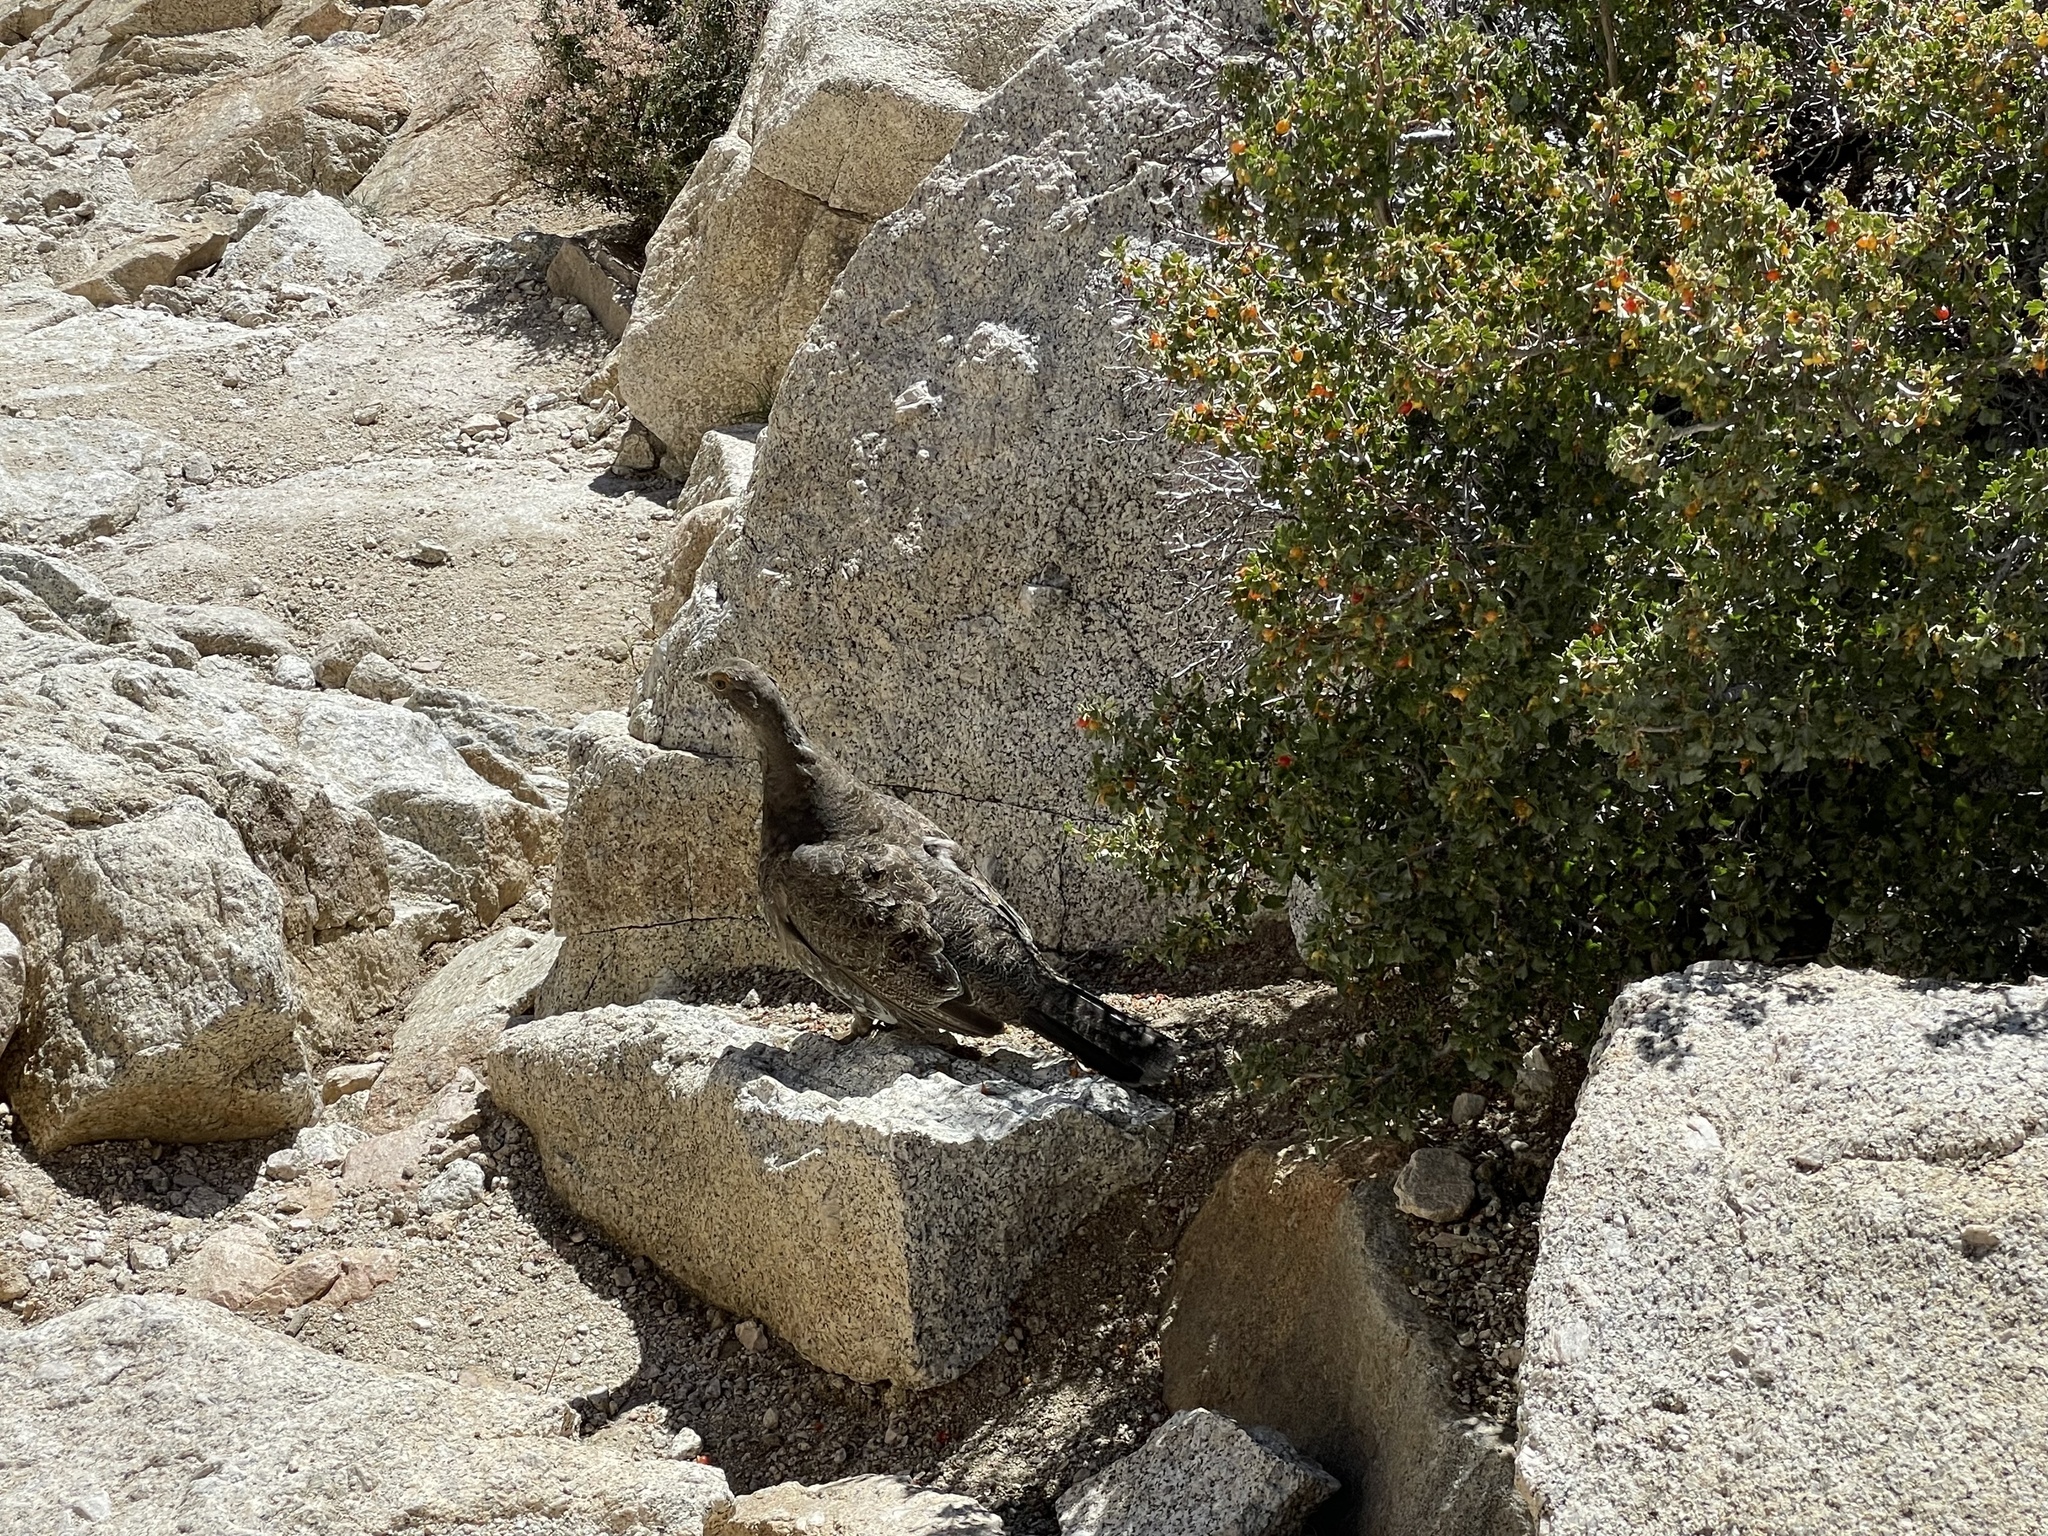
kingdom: Animalia
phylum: Chordata
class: Aves
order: Galliformes
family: Phasianidae
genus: Dendragapus
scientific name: Dendragapus fuliginosus
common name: Sooty grouse
